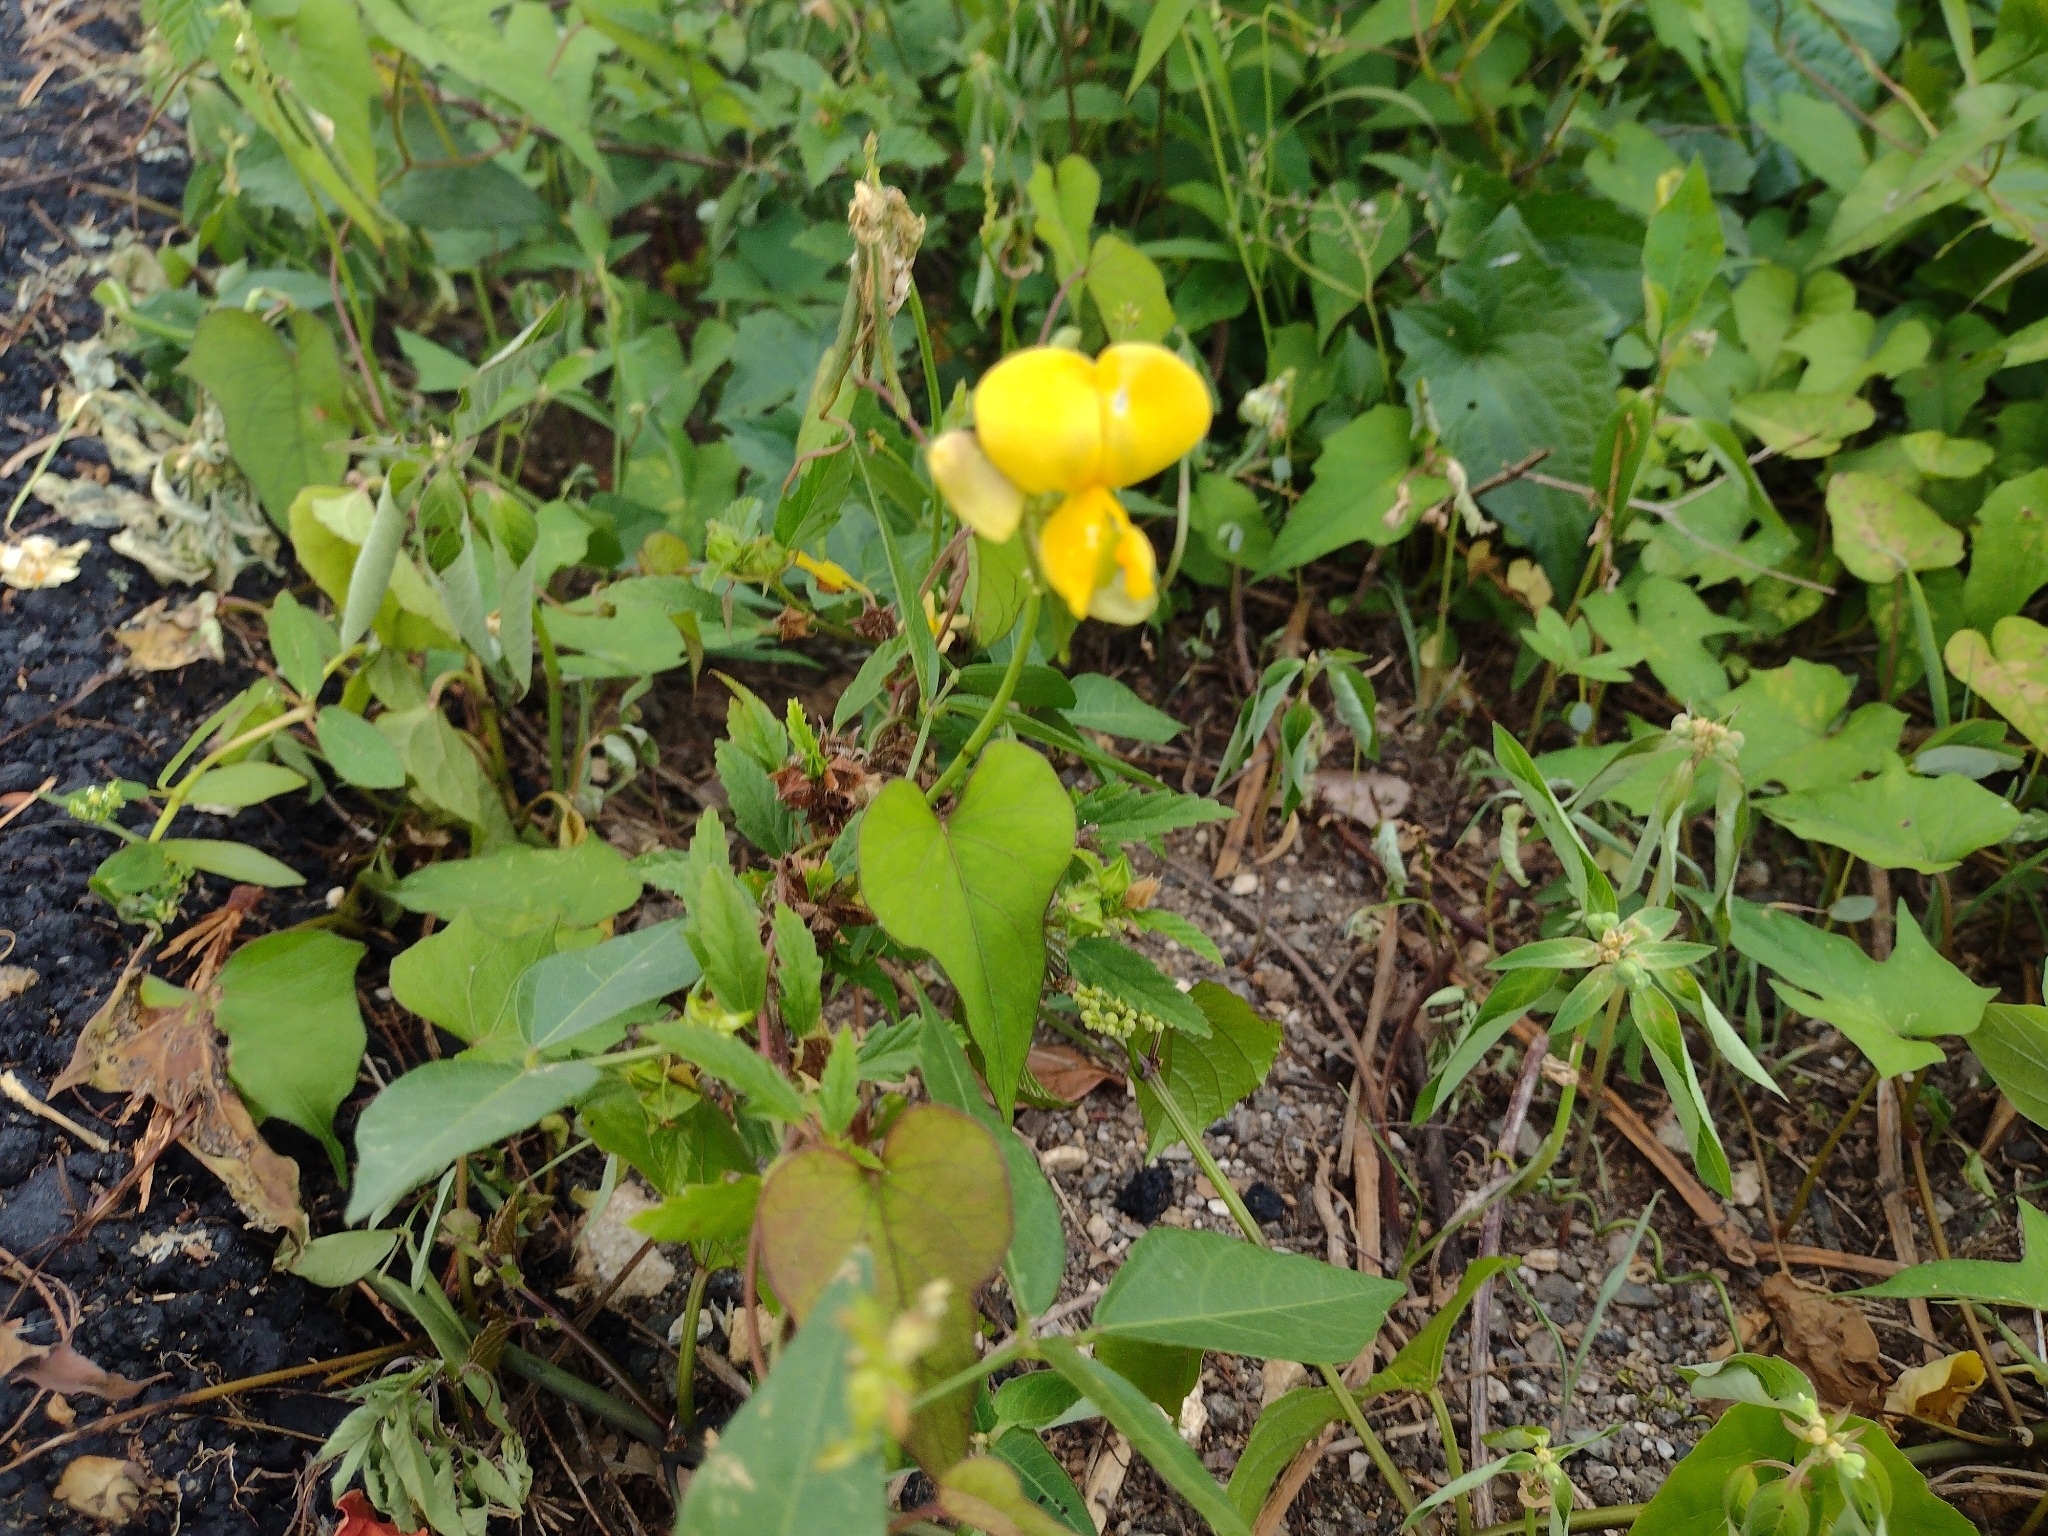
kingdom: Plantae
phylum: Tracheophyta
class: Magnoliopsida
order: Fabales
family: Fabaceae
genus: Vigna
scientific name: Vigna luteola
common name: Hairypod cowpea
